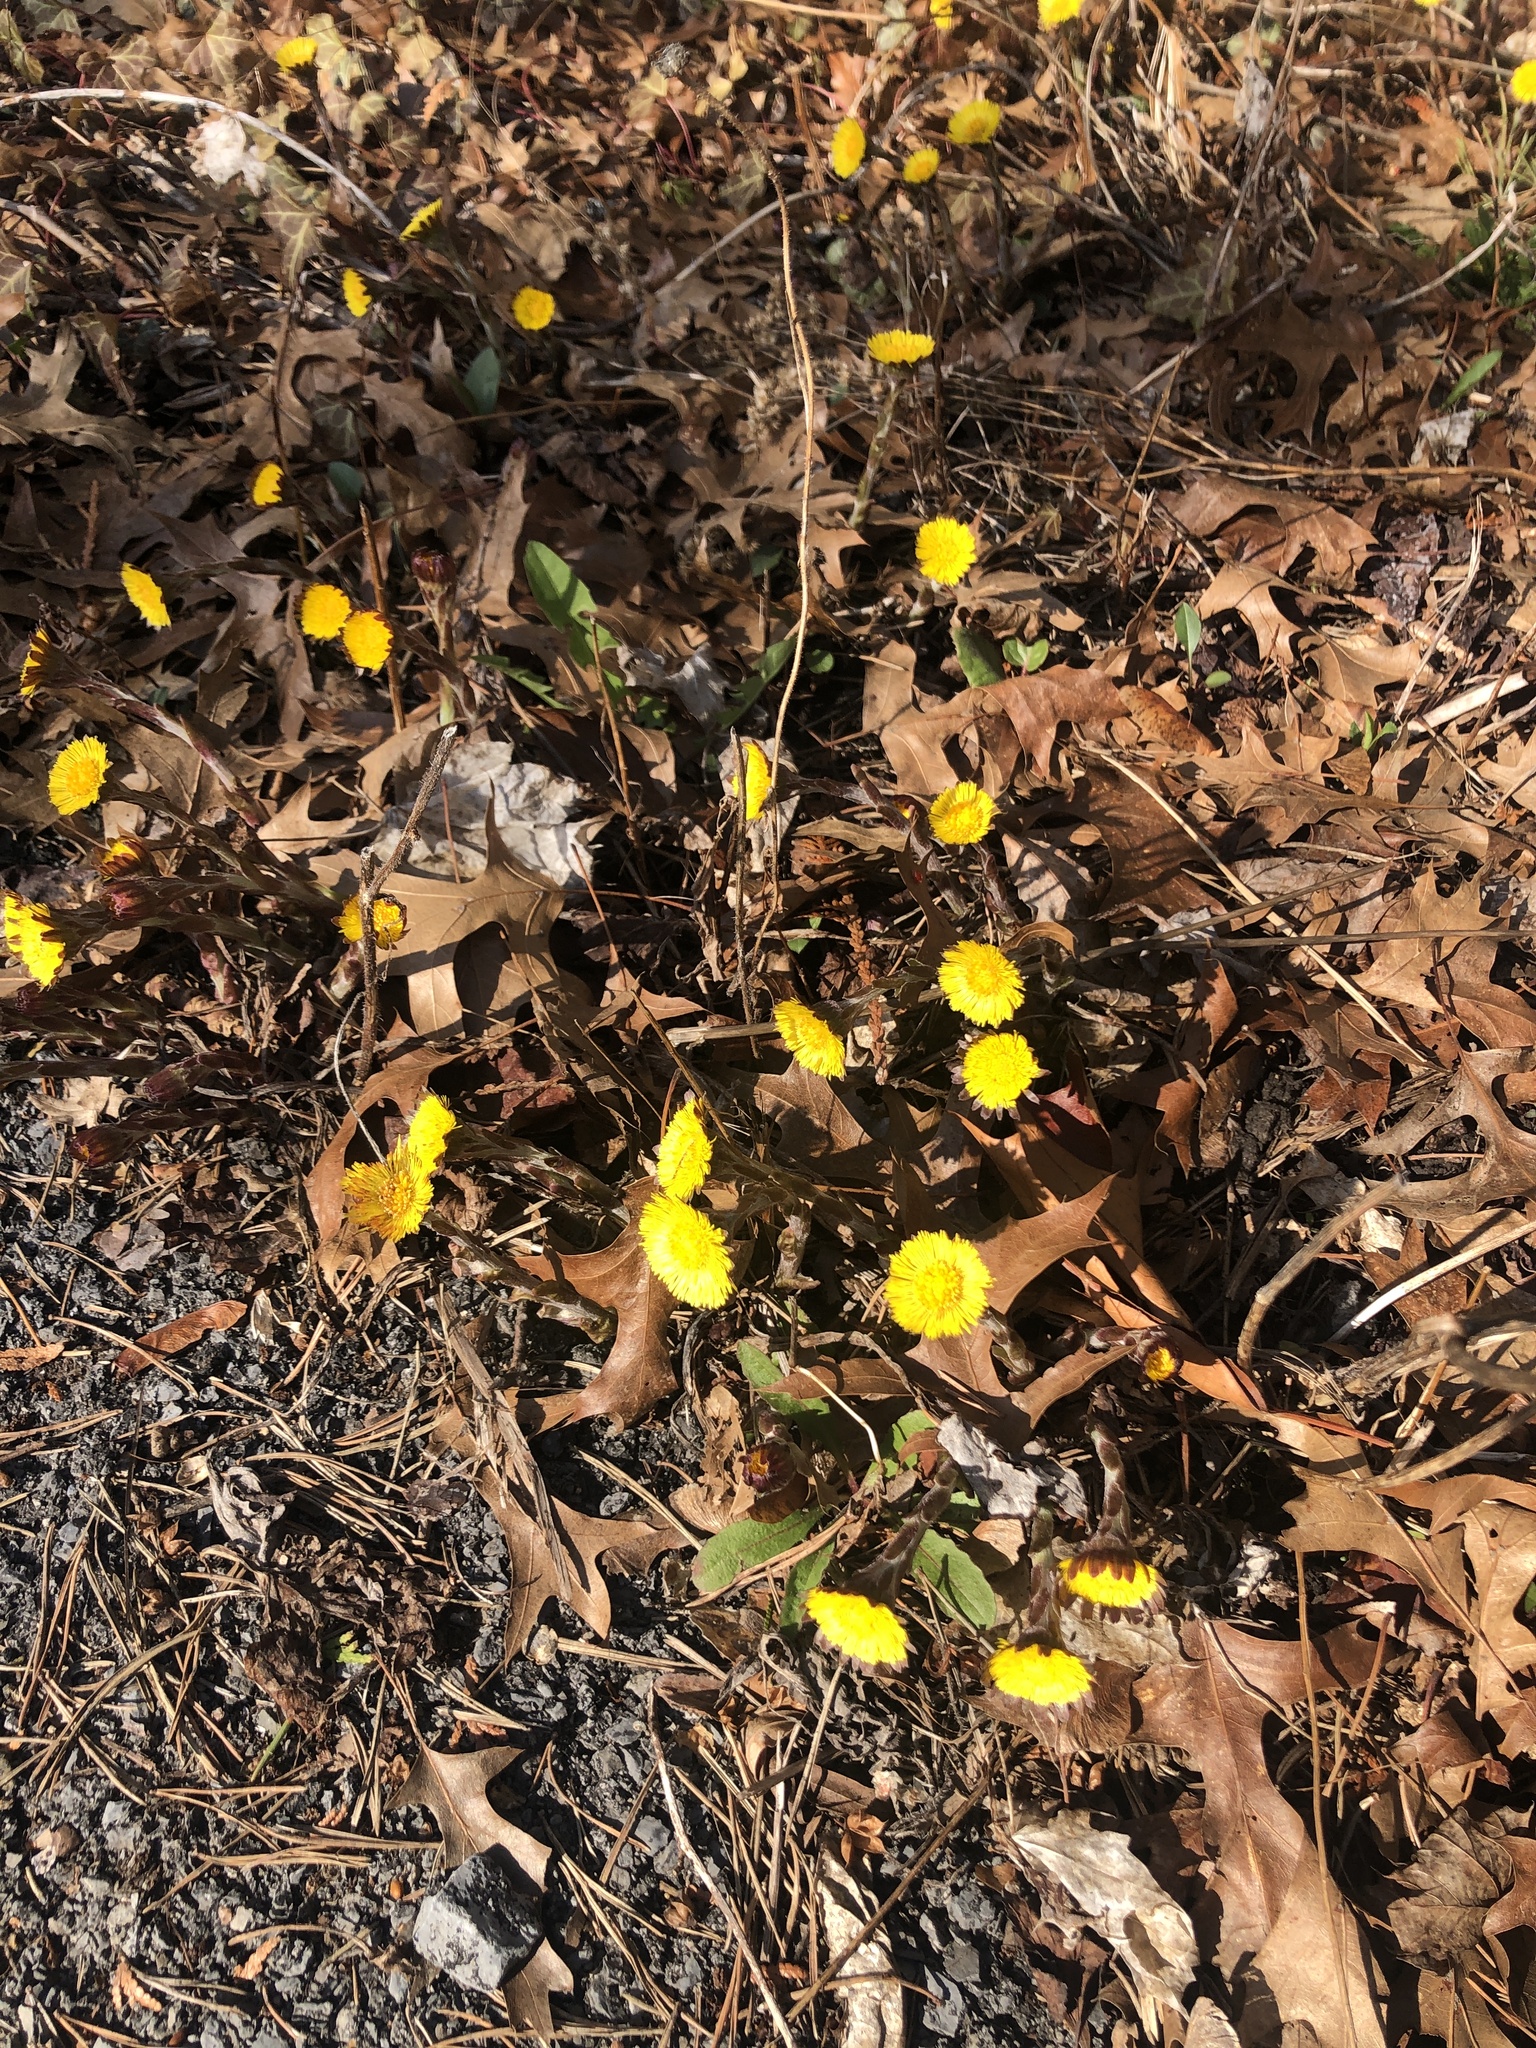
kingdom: Plantae
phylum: Tracheophyta
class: Magnoliopsida
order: Asterales
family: Asteraceae
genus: Tussilago
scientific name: Tussilago farfara
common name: Coltsfoot
